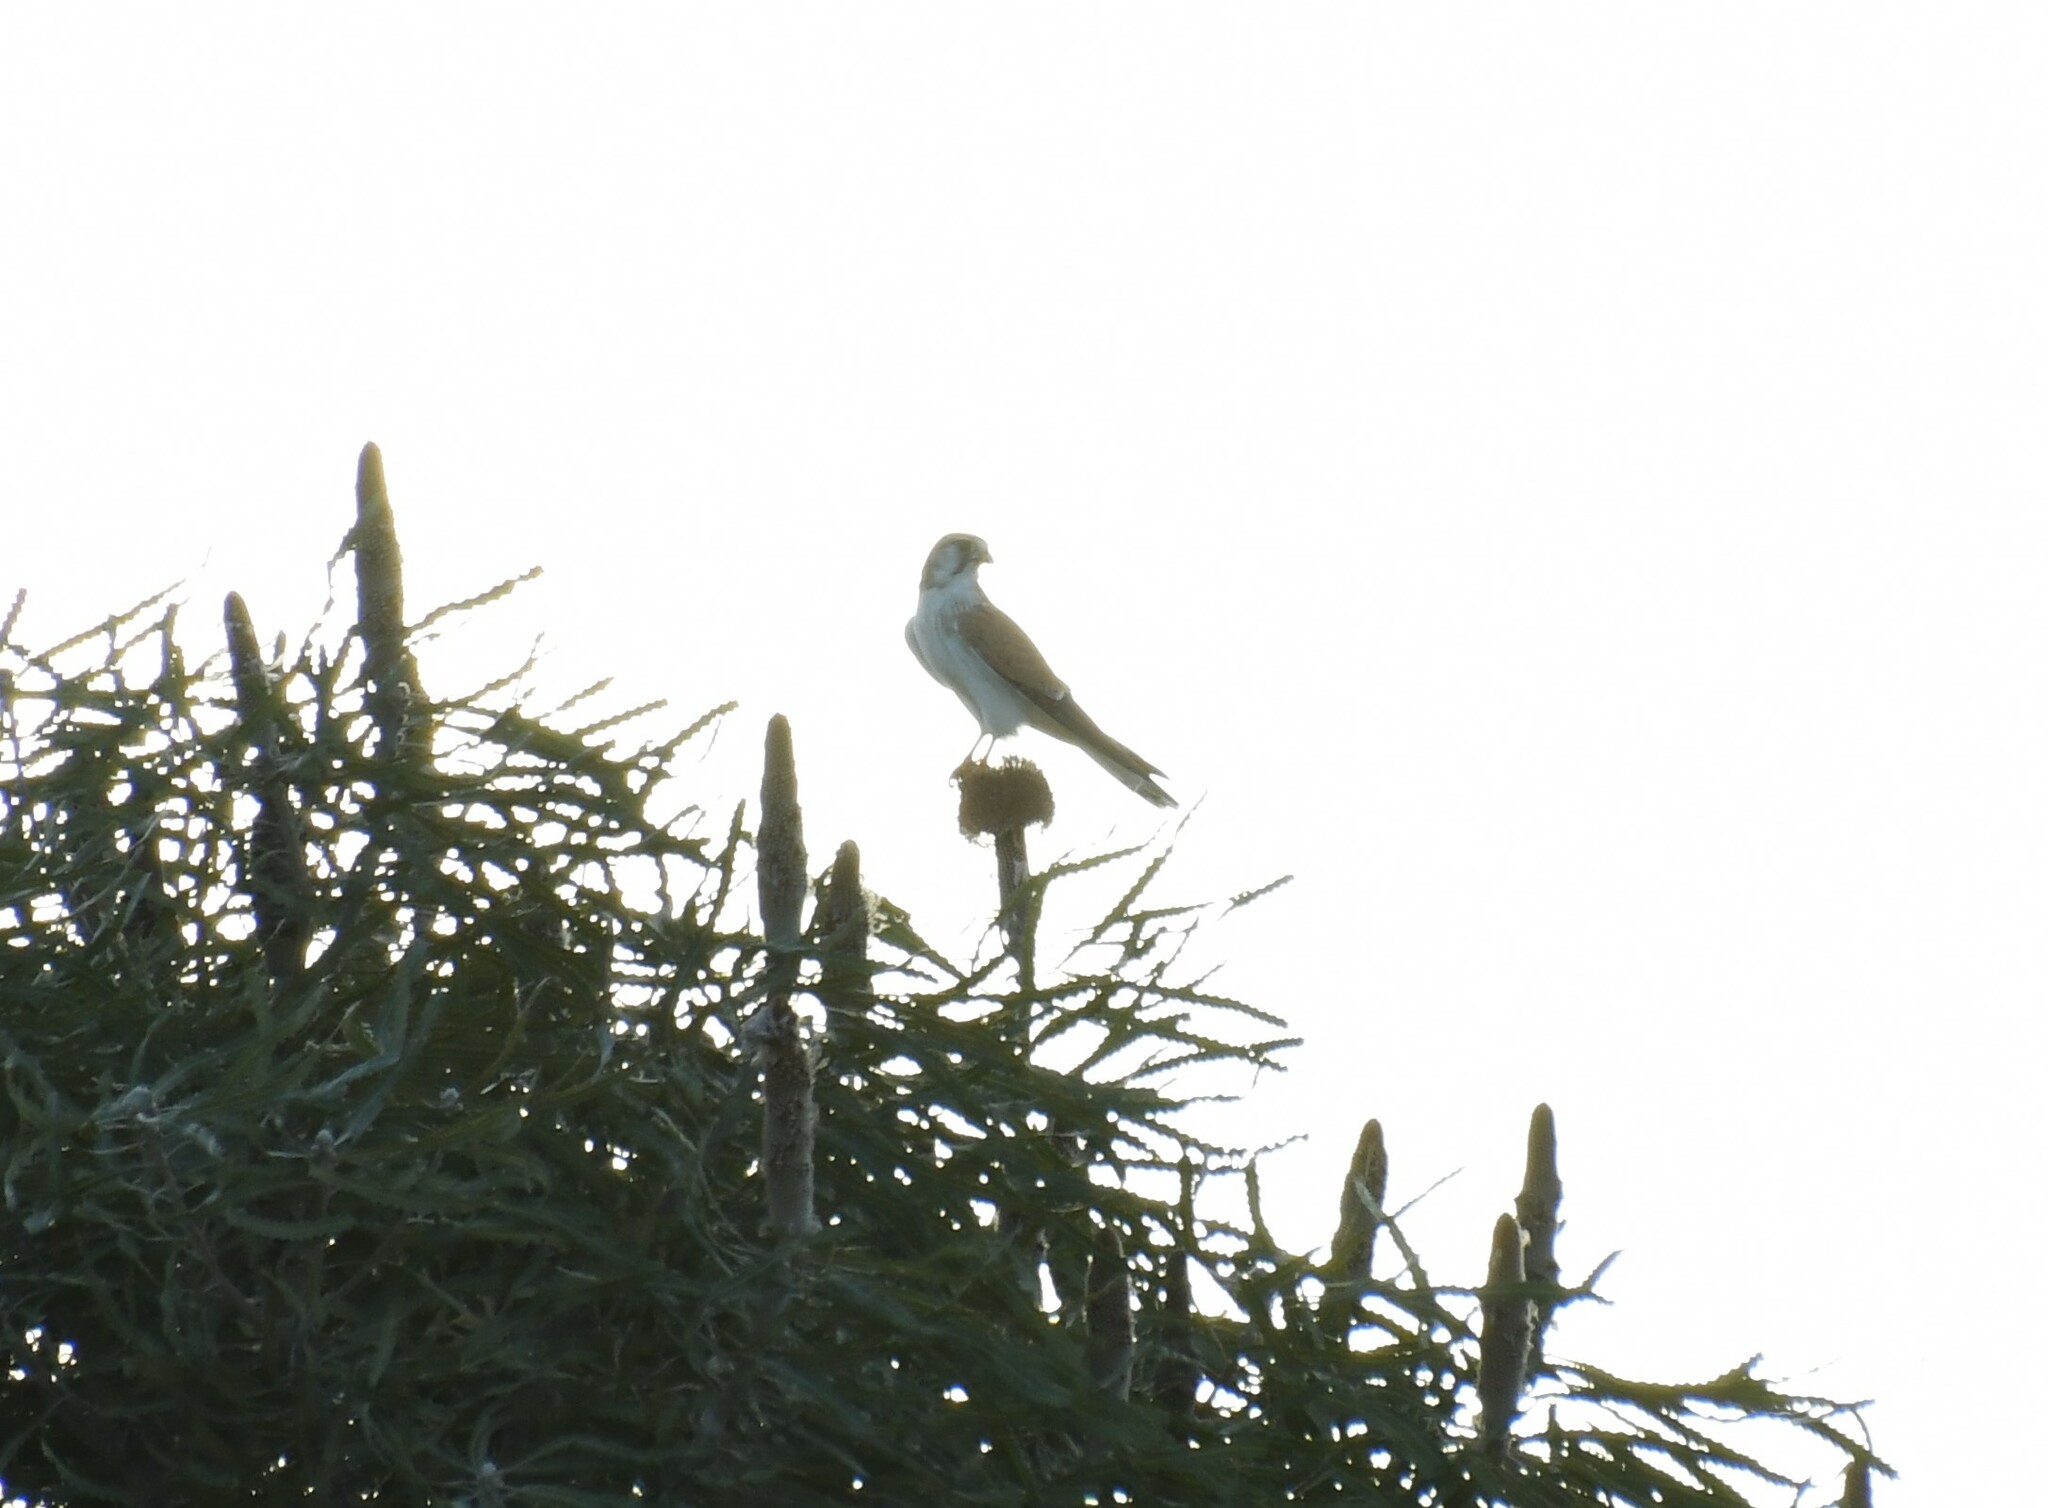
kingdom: Animalia
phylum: Chordata
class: Aves
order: Falconiformes
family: Falconidae
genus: Falco
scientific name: Falco cenchroides
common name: Nankeen kestrel
